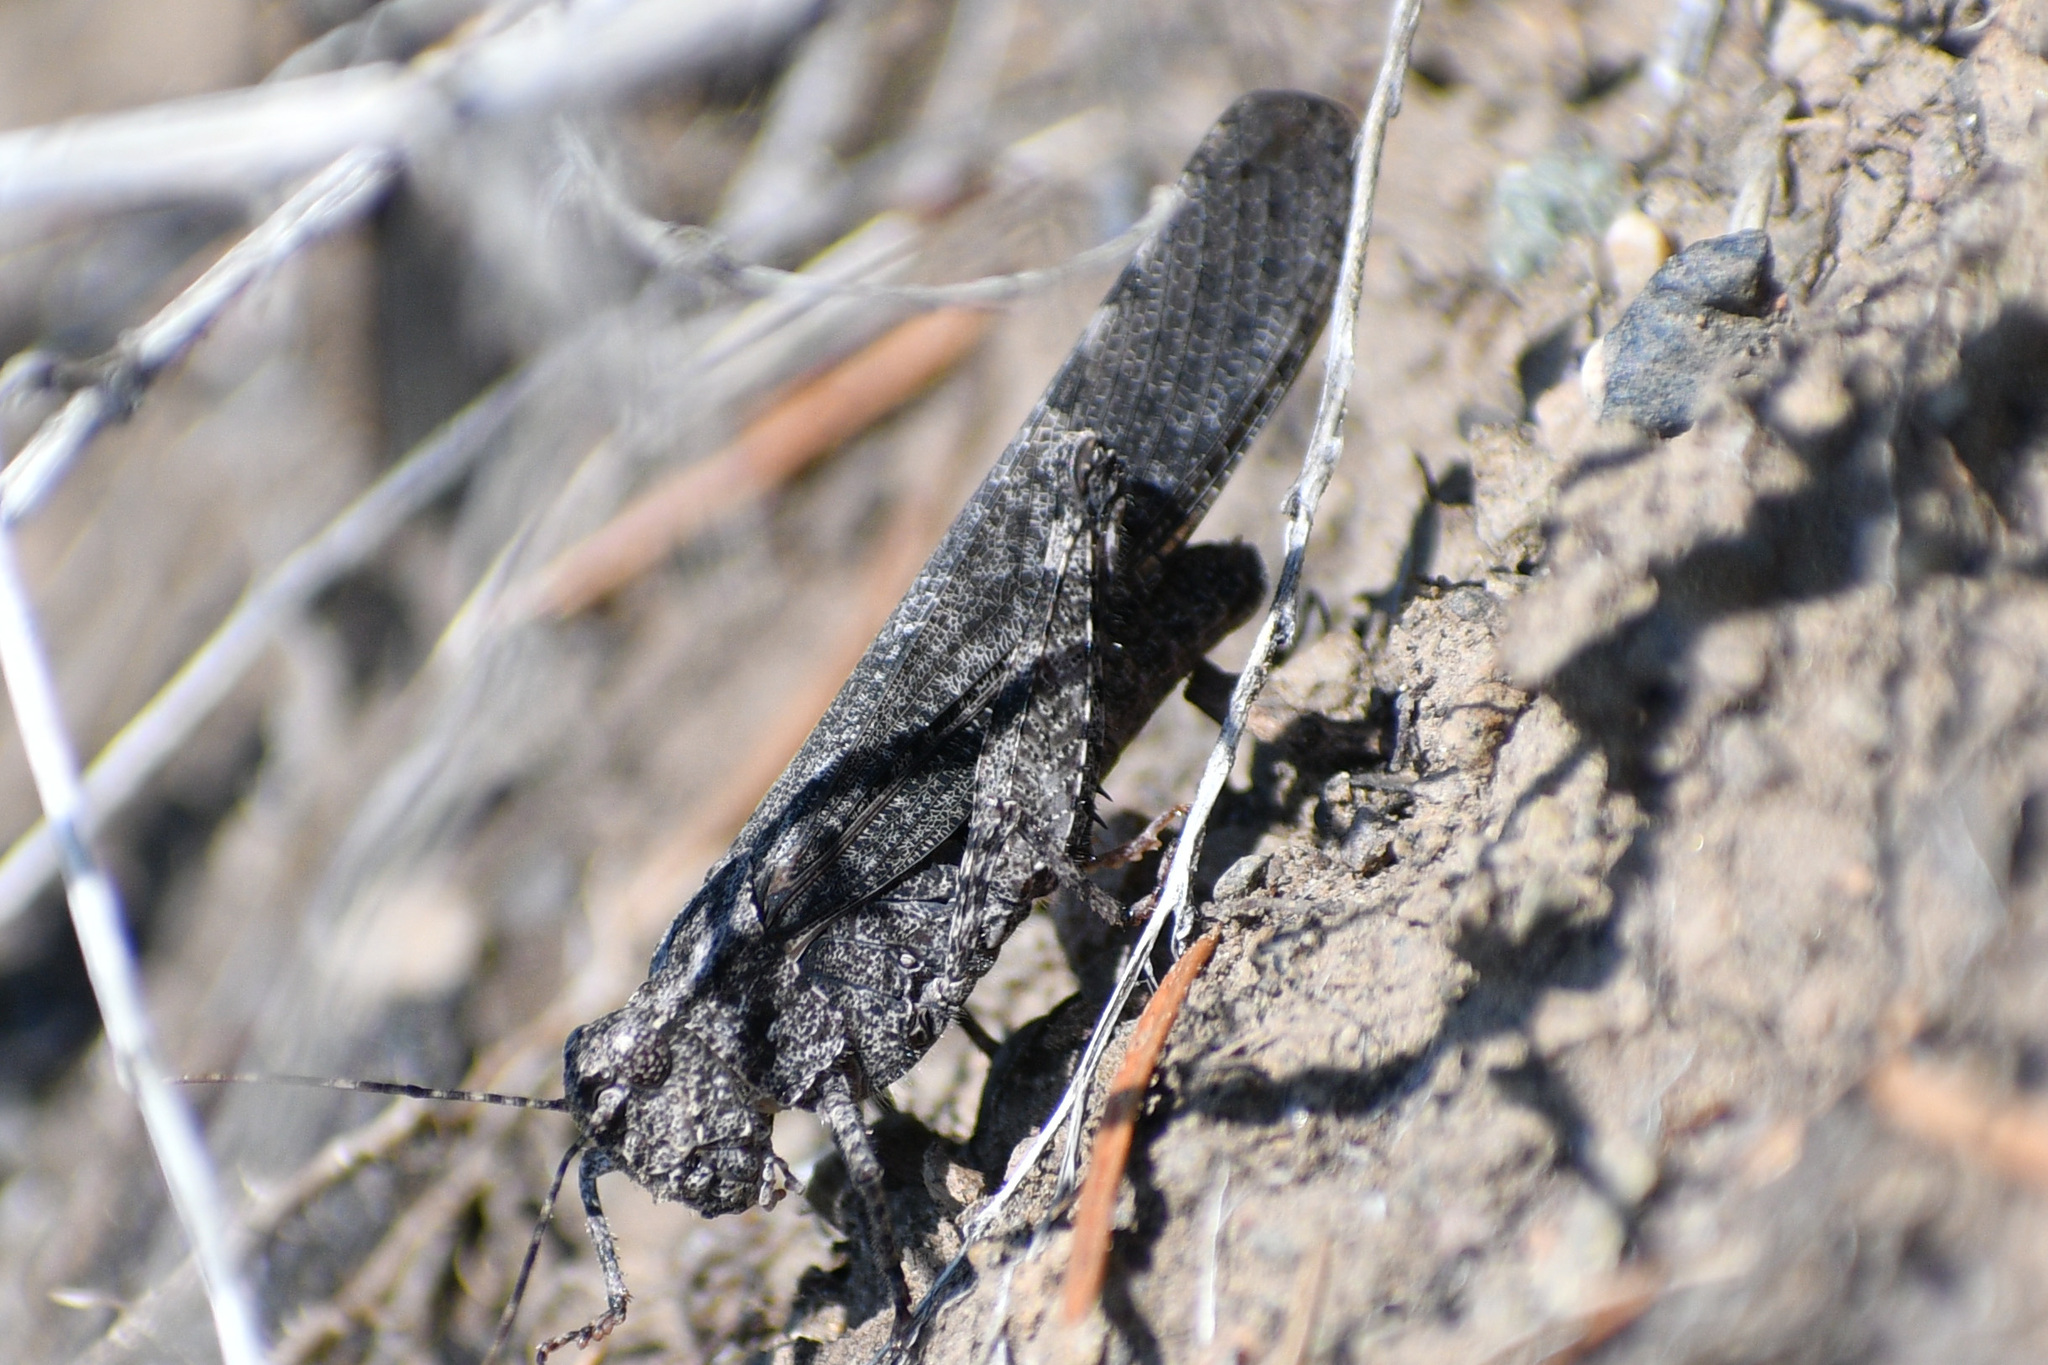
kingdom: Animalia
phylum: Arthropoda
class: Insecta
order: Orthoptera
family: Acrididae
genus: Trimerotropis
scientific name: Trimerotropis verruculata
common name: Crackling forest grasshopper
